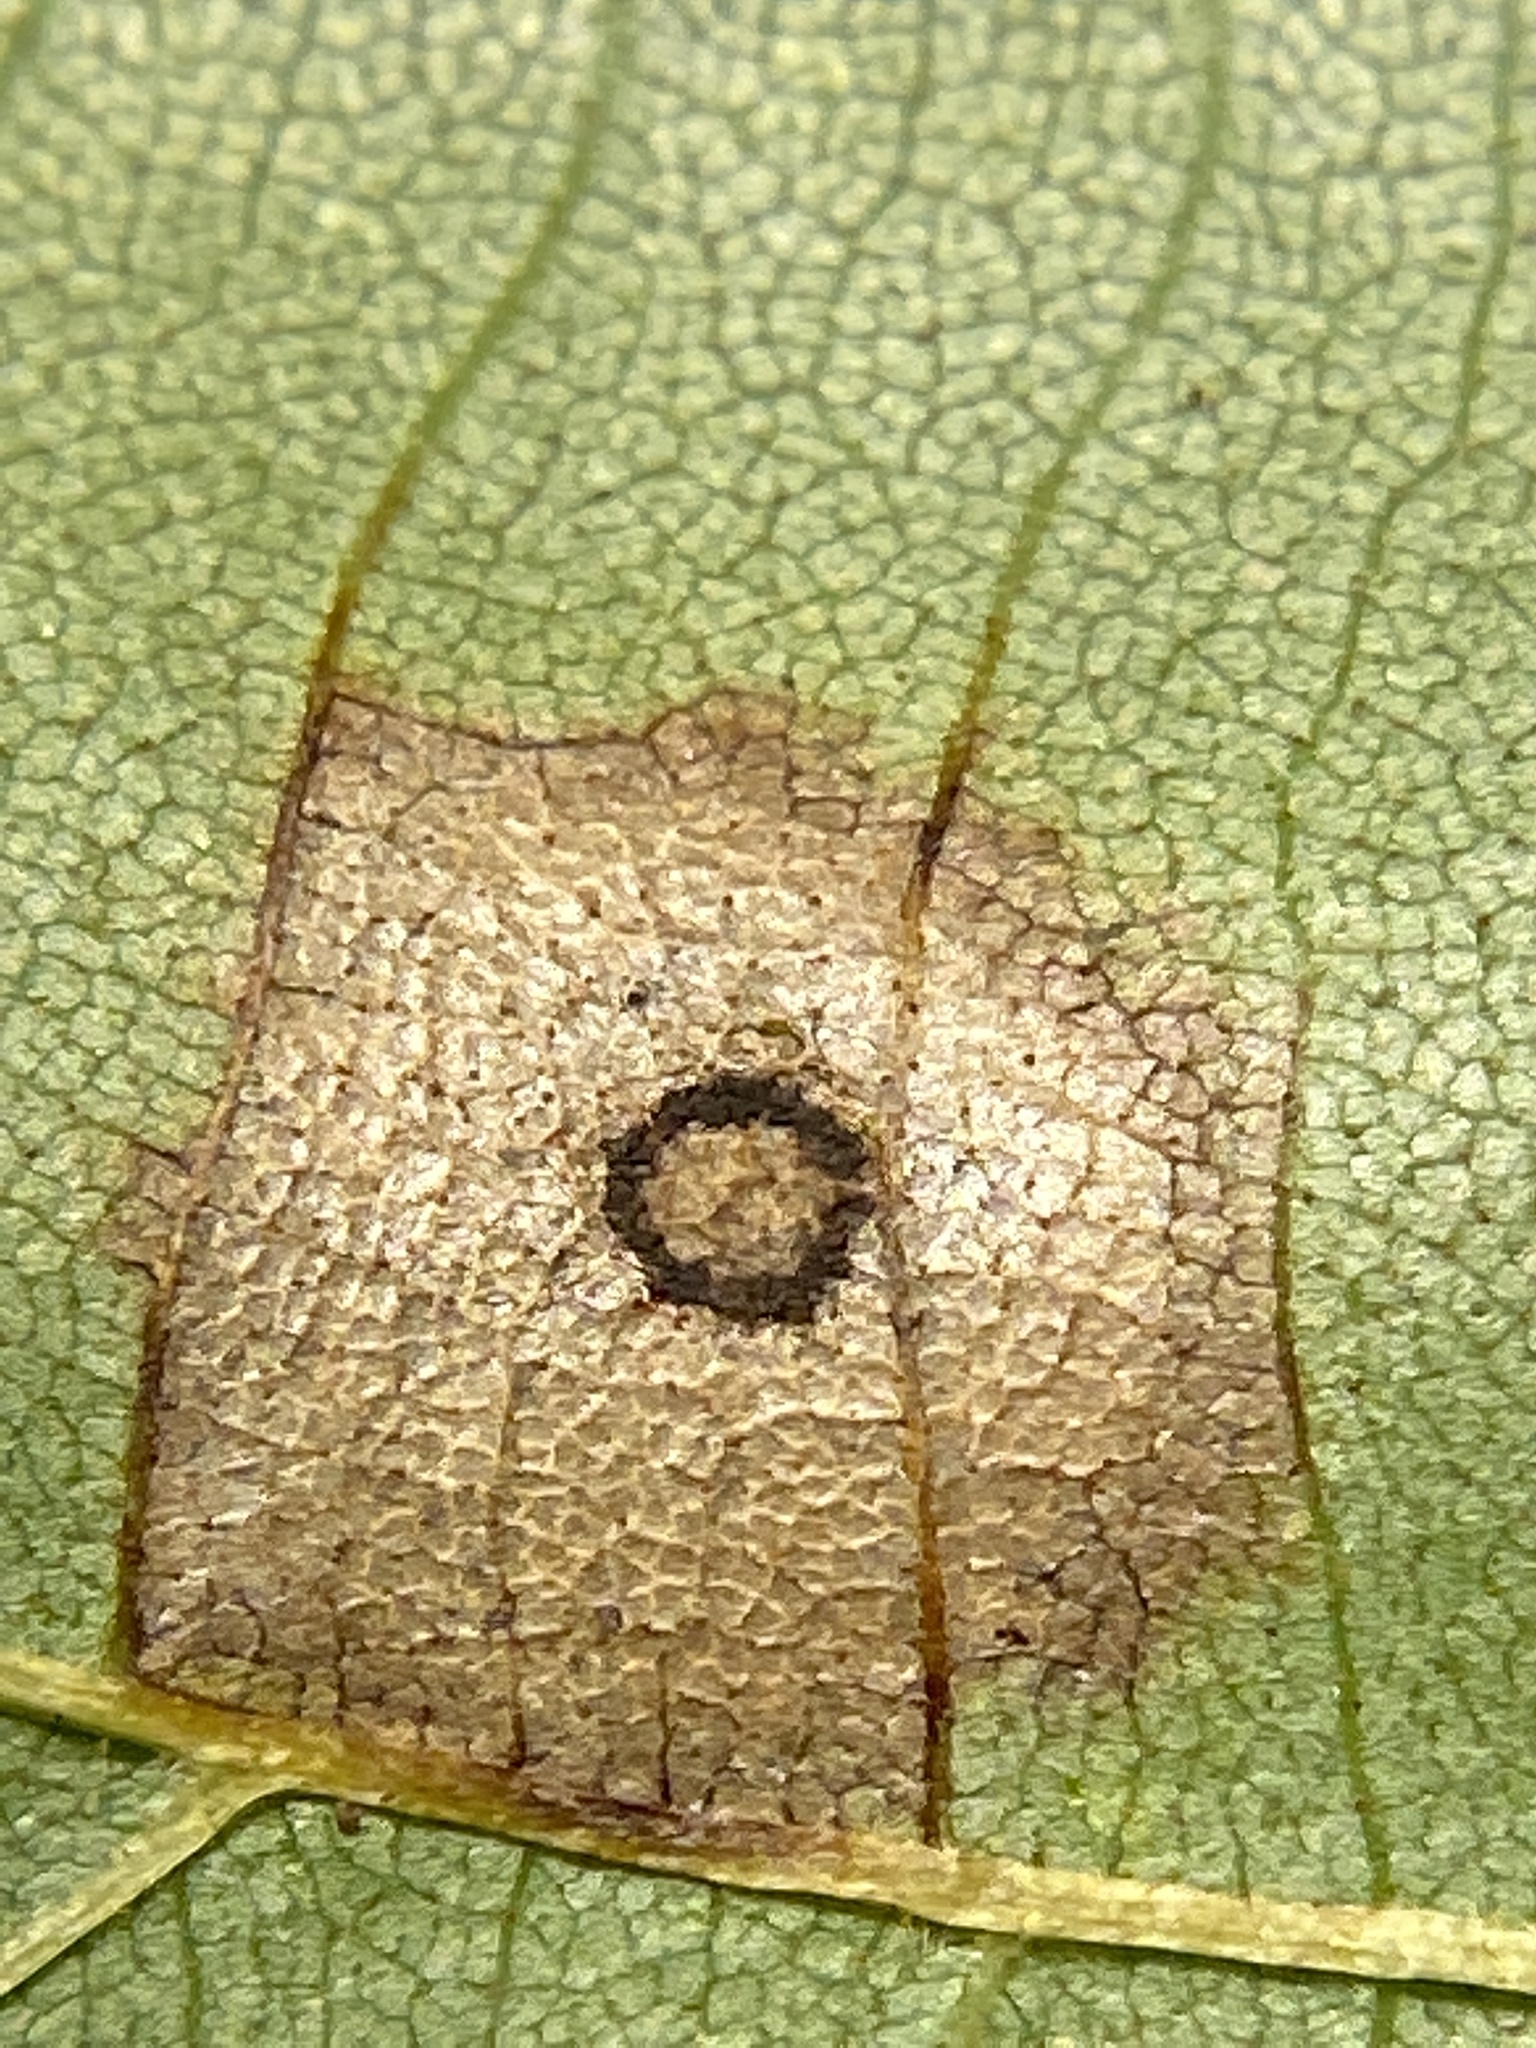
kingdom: Animalia
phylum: Arthropoda
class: Insecta
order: Diptera
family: Cecidomyiidae
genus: Gliaspilota
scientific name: Gliaspilota glutinosa
